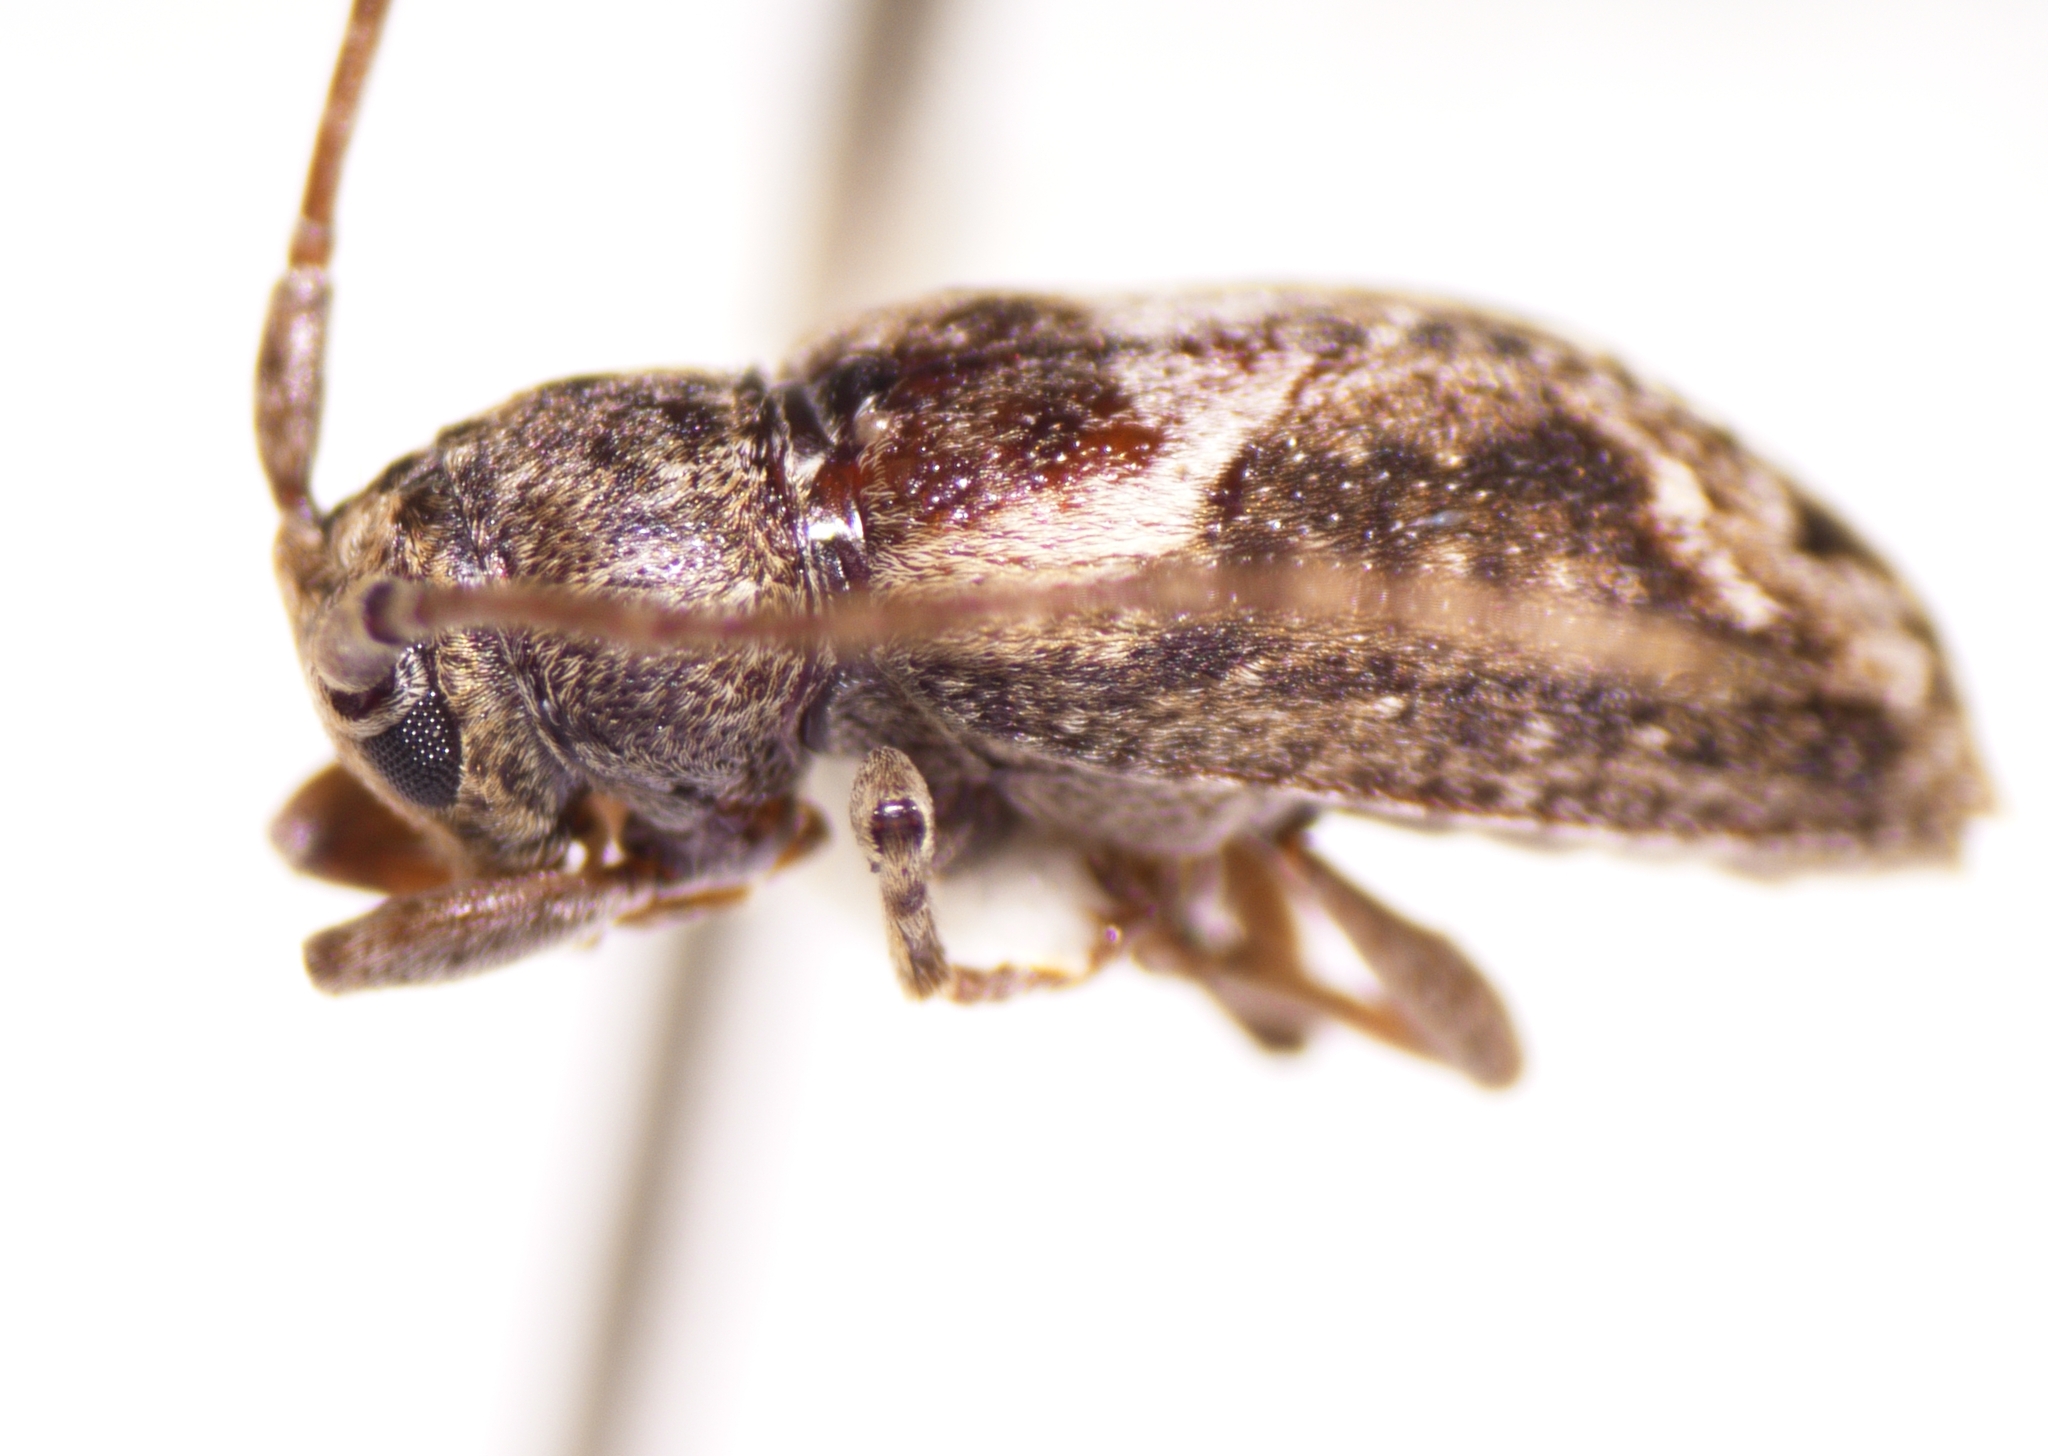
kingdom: Animalia
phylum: Arthropoda
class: Insecta
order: Coleoptera
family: Cerambycidae
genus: Pterolophia
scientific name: Pterolophia lateripicta
